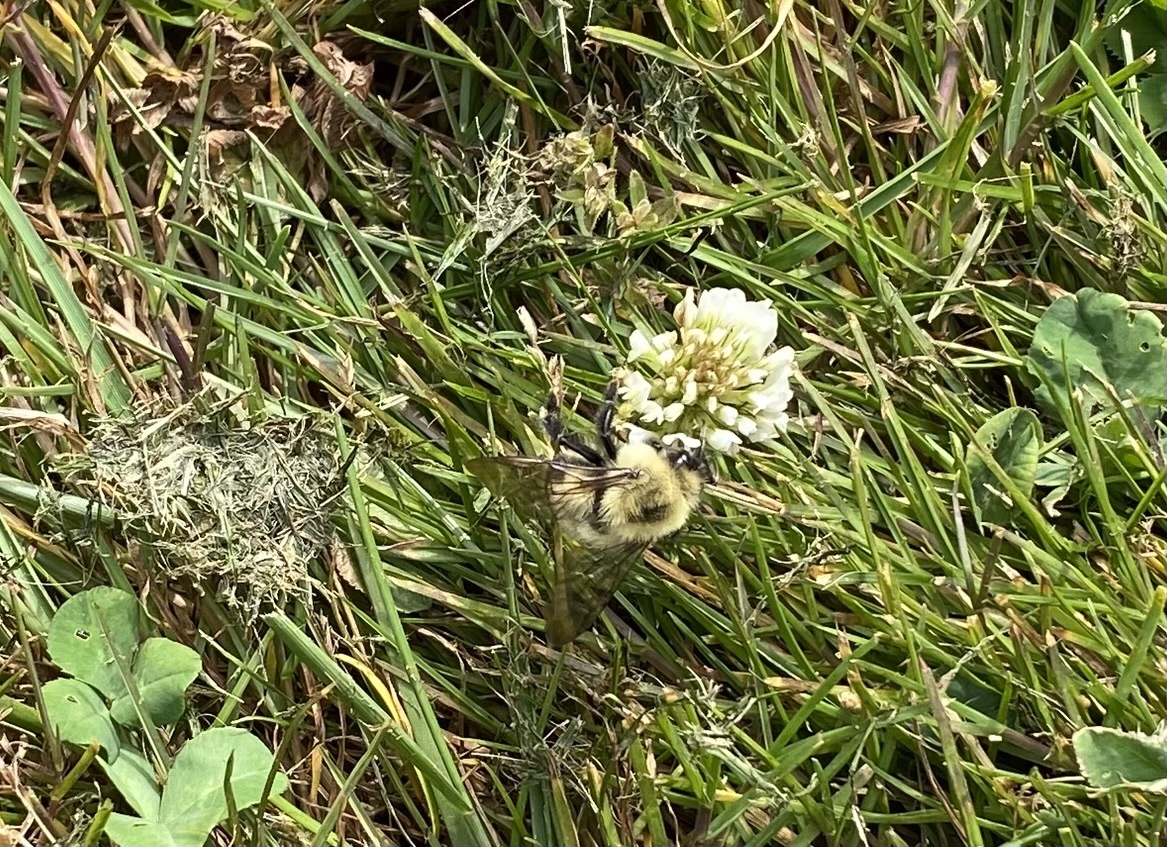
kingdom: Animalia
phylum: Arthropoda
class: Insecta
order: Hymenoptera
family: Apidae
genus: Bombus
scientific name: Bombus bimaculatus
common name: Two-spotted bumble bee
